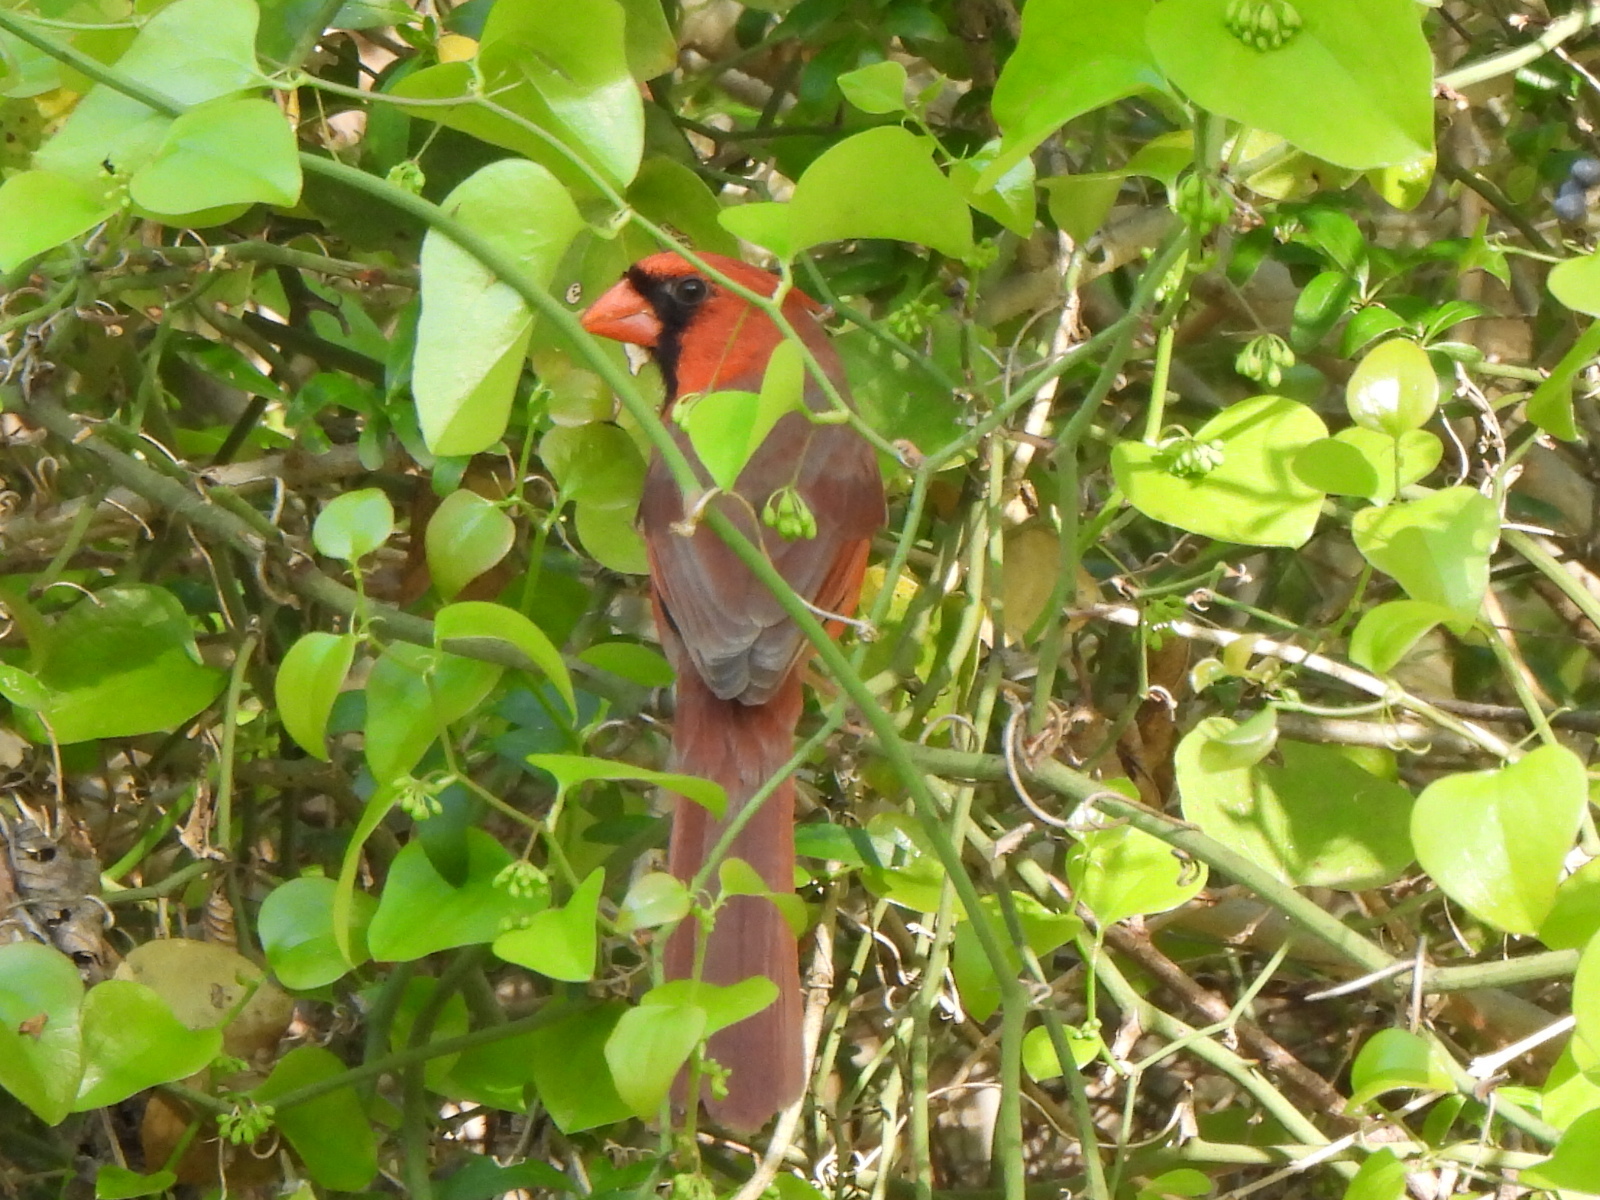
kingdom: Animalia
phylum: Chordata
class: Aves
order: Passeriformes
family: Cardinalidae
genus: Cardinalis
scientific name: Cardinalis cardinalis
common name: Northern cardinal
